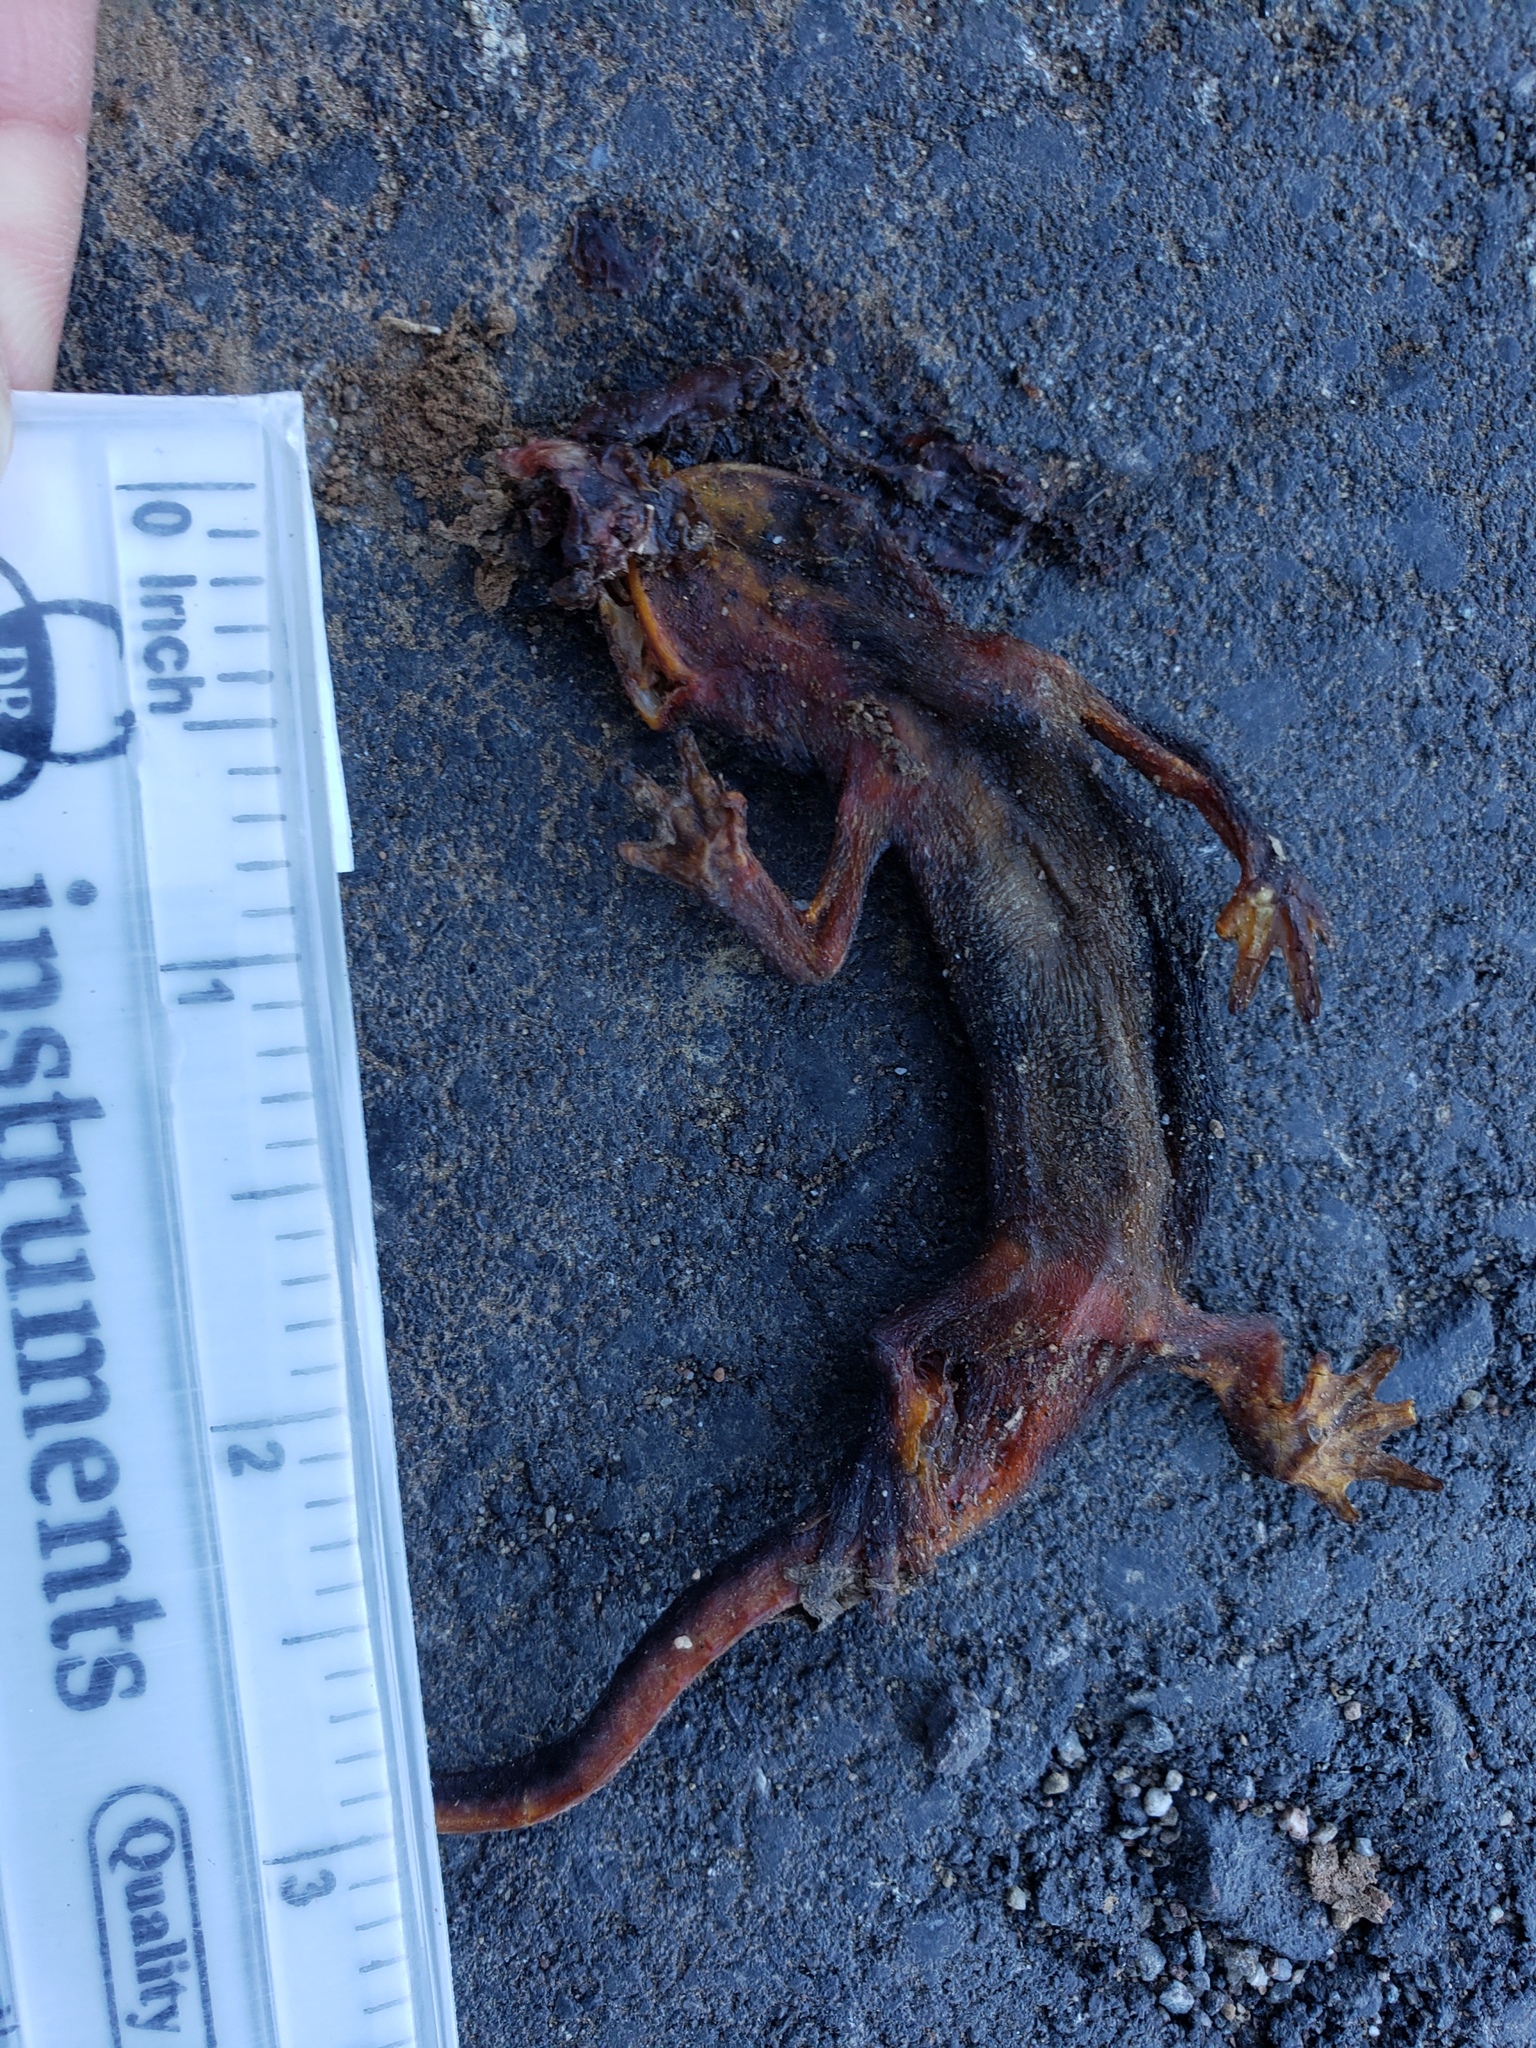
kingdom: Animalia
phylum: Chordata
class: Amphibia
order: Caudata
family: Salamandridae
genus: Taricha
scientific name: Taricha
